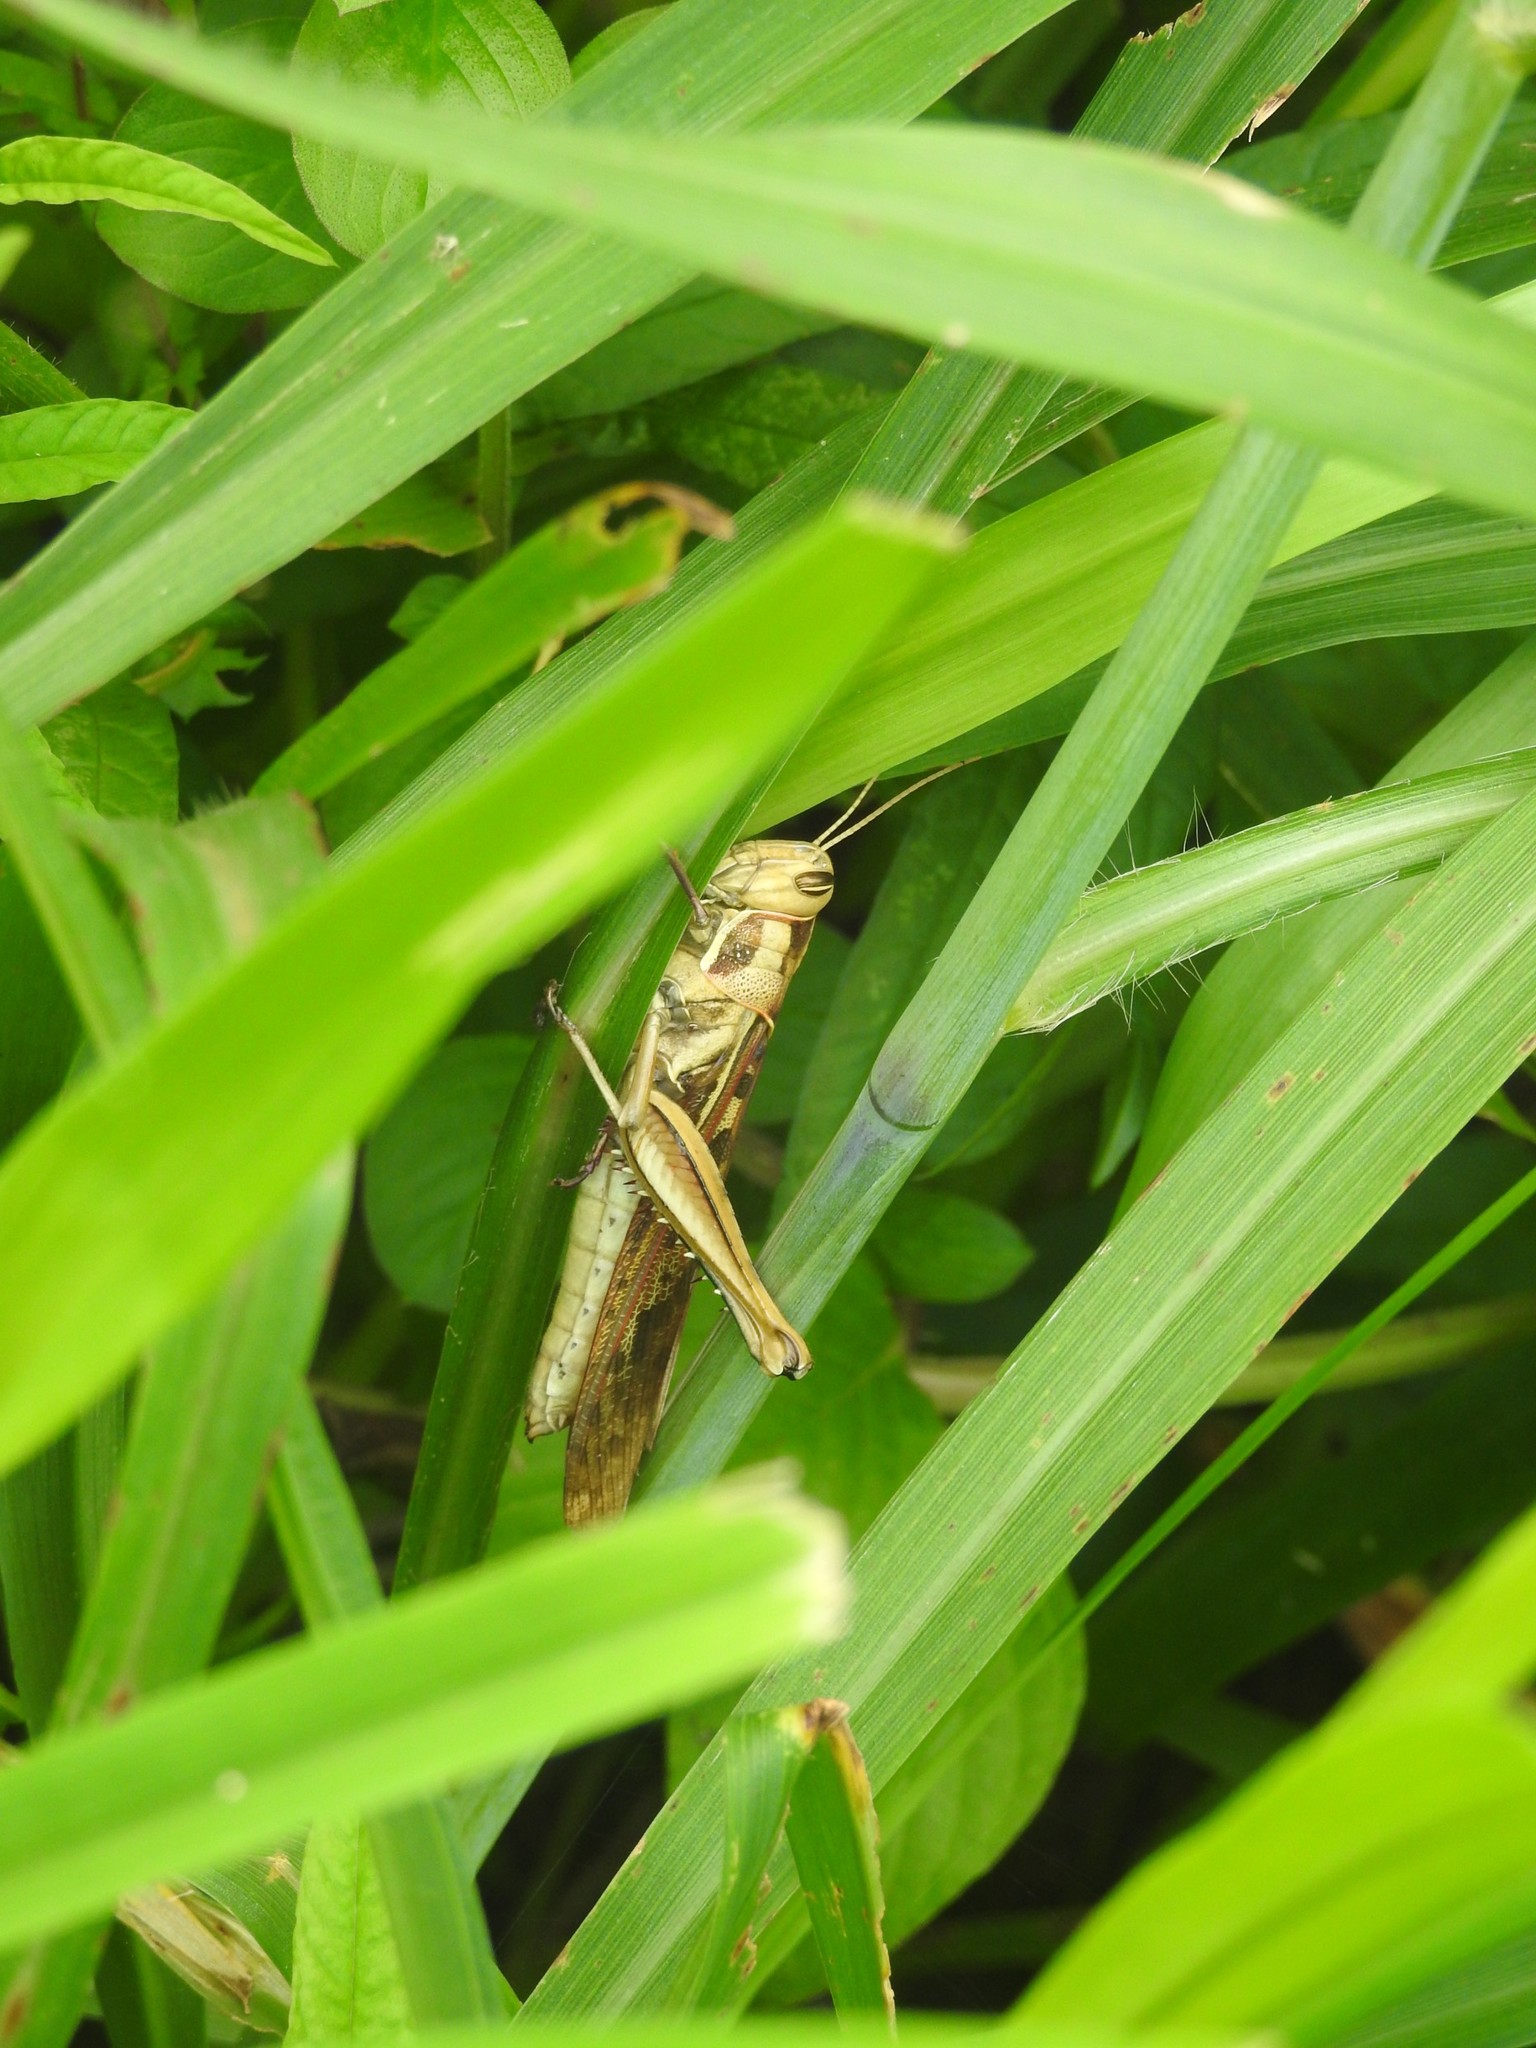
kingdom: Animalia
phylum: Arthropoda
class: Insecta
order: Orthoptera
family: Acrididae
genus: Cyrtacanthacris
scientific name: Cyrtacanthacris tatarica
